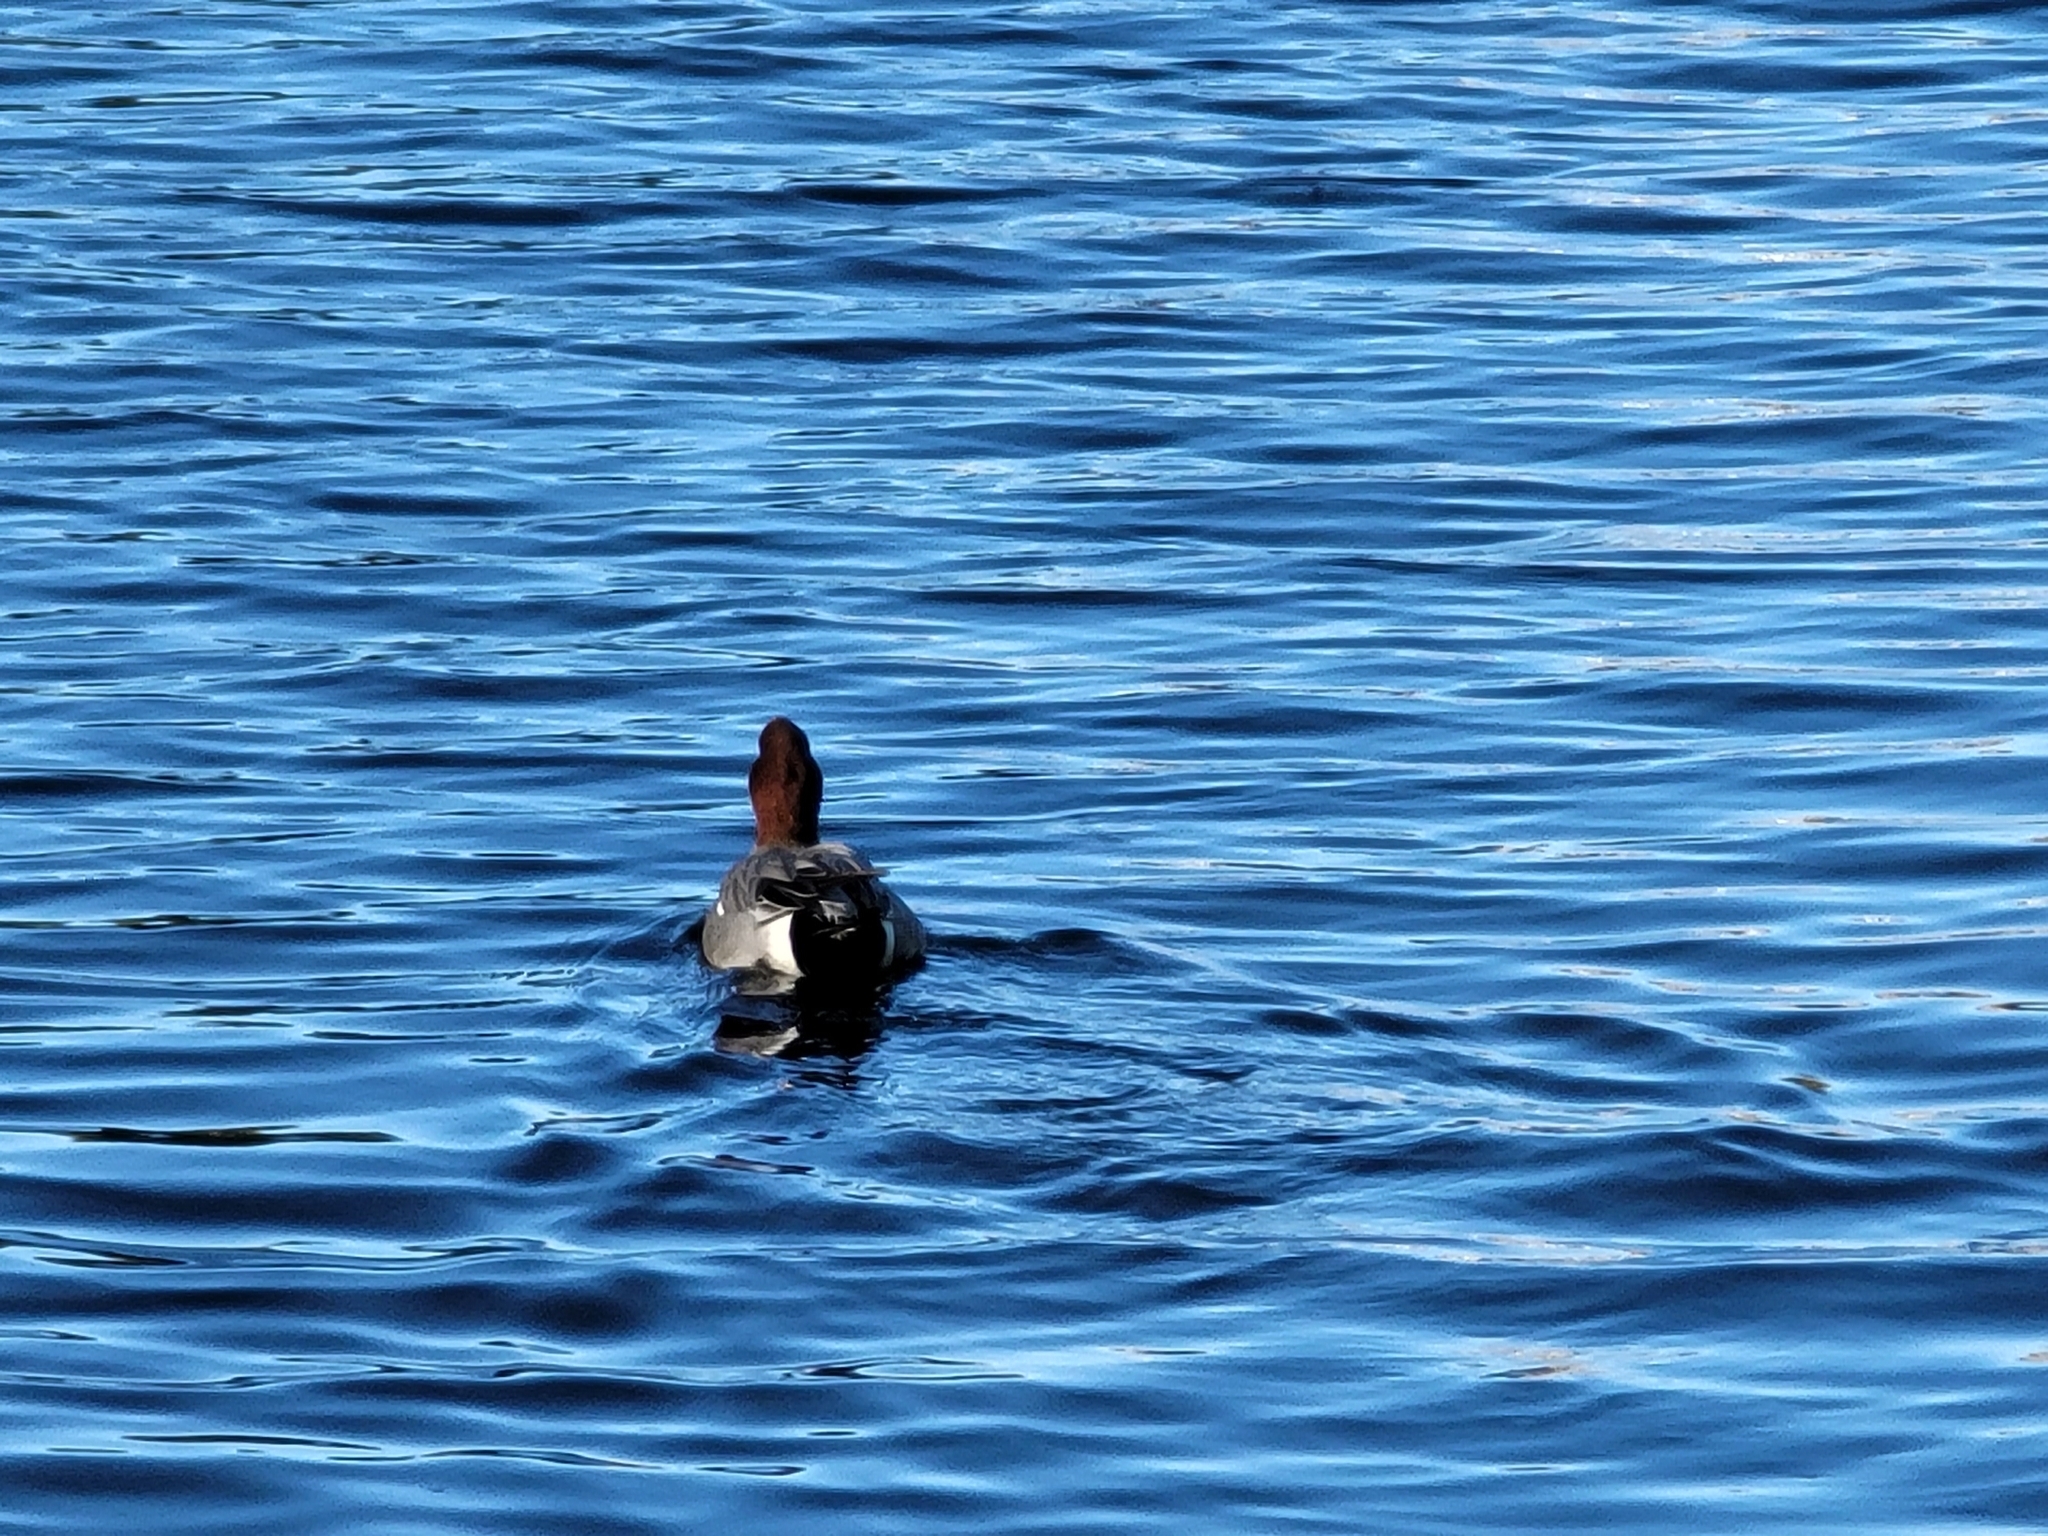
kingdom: Animalia
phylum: Chordata
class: Aves
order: Anseriformes
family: Anatidae
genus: Mareca
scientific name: Mareca penelope
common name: Eurasian wigeon
